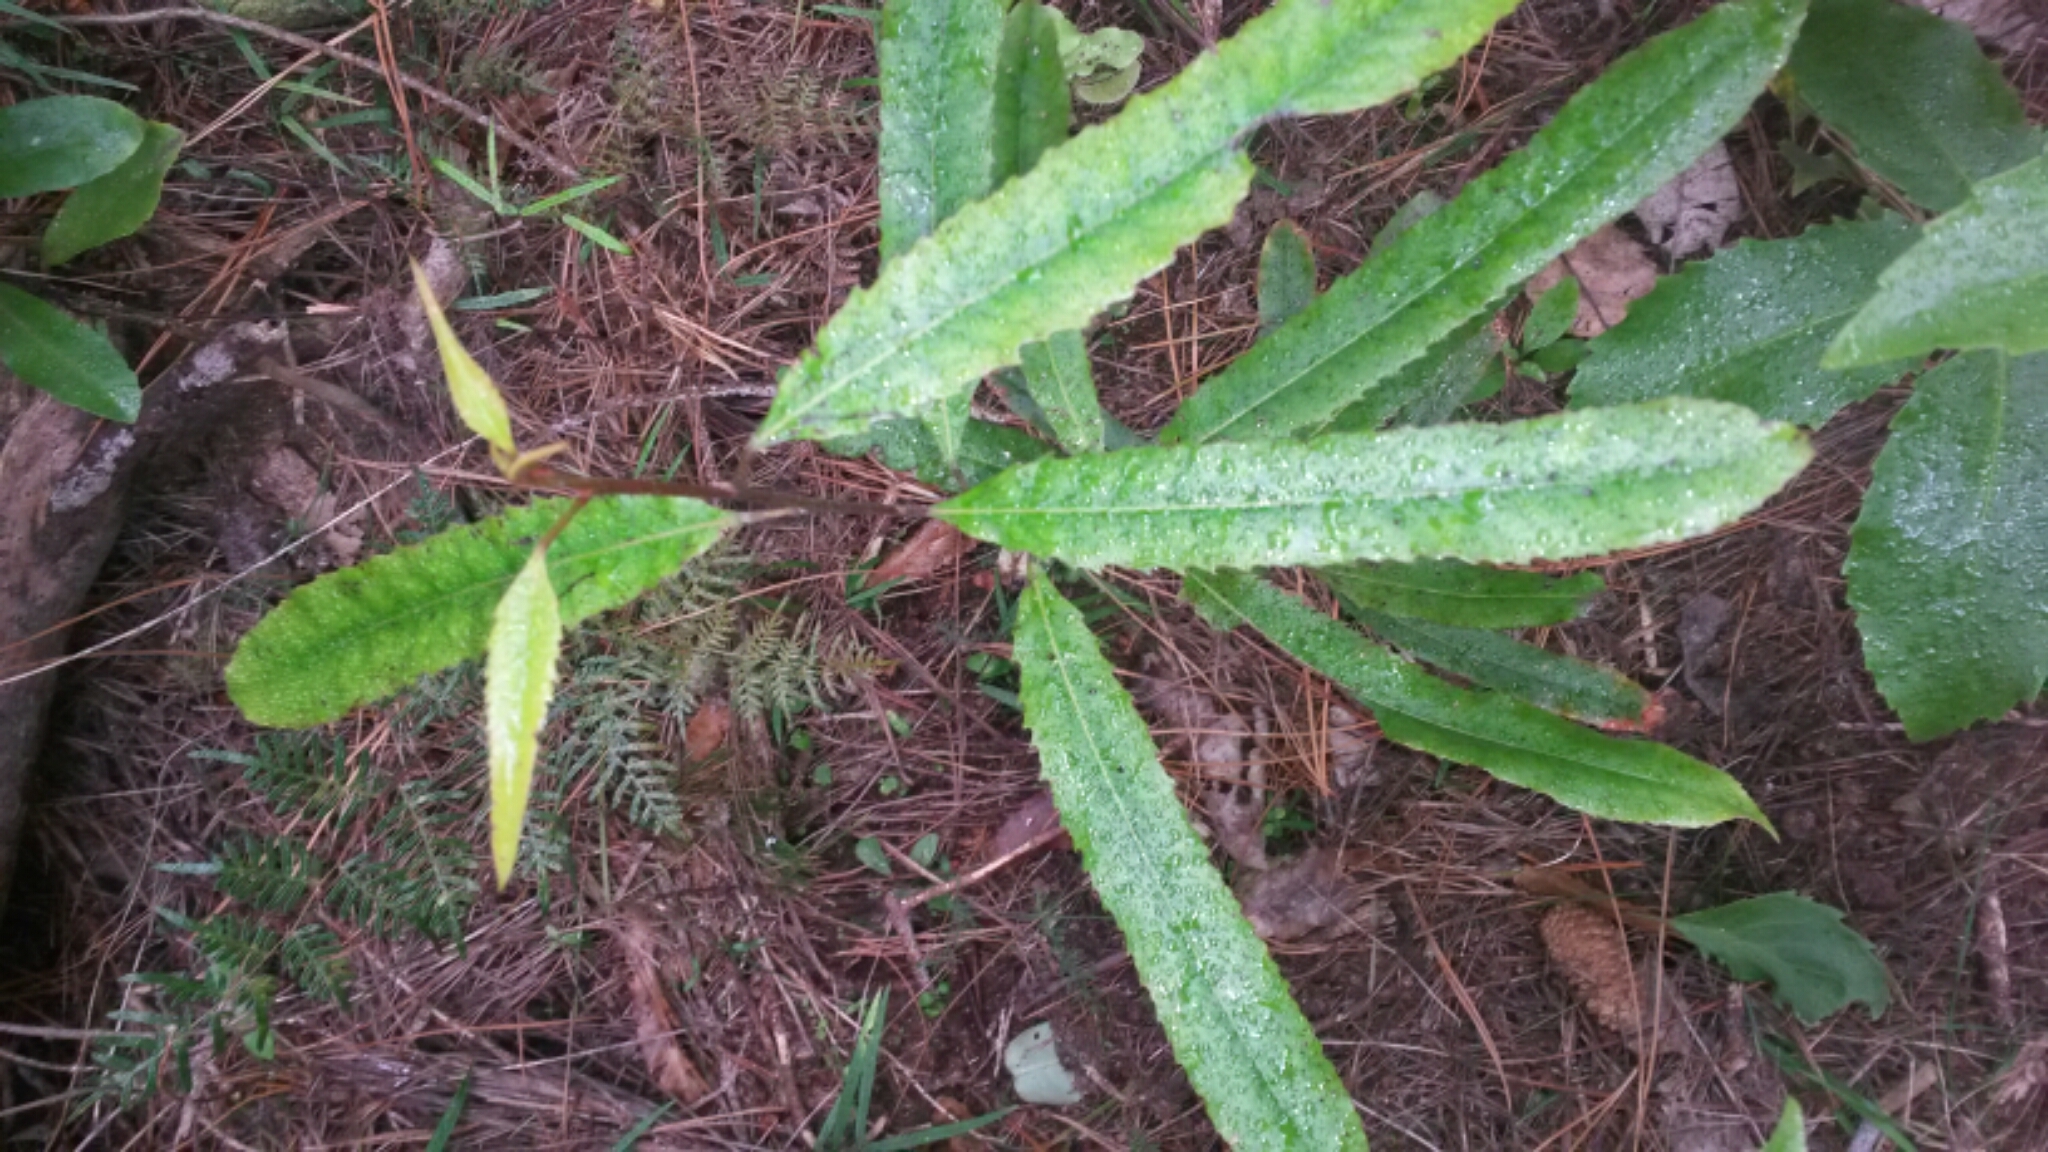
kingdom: Plantae
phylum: Tracheophyta
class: Magnoliopsida
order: Oxalidales
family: Elaeocarpaceae
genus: Elaeocarpus
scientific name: Elaeocarpus dentatus
